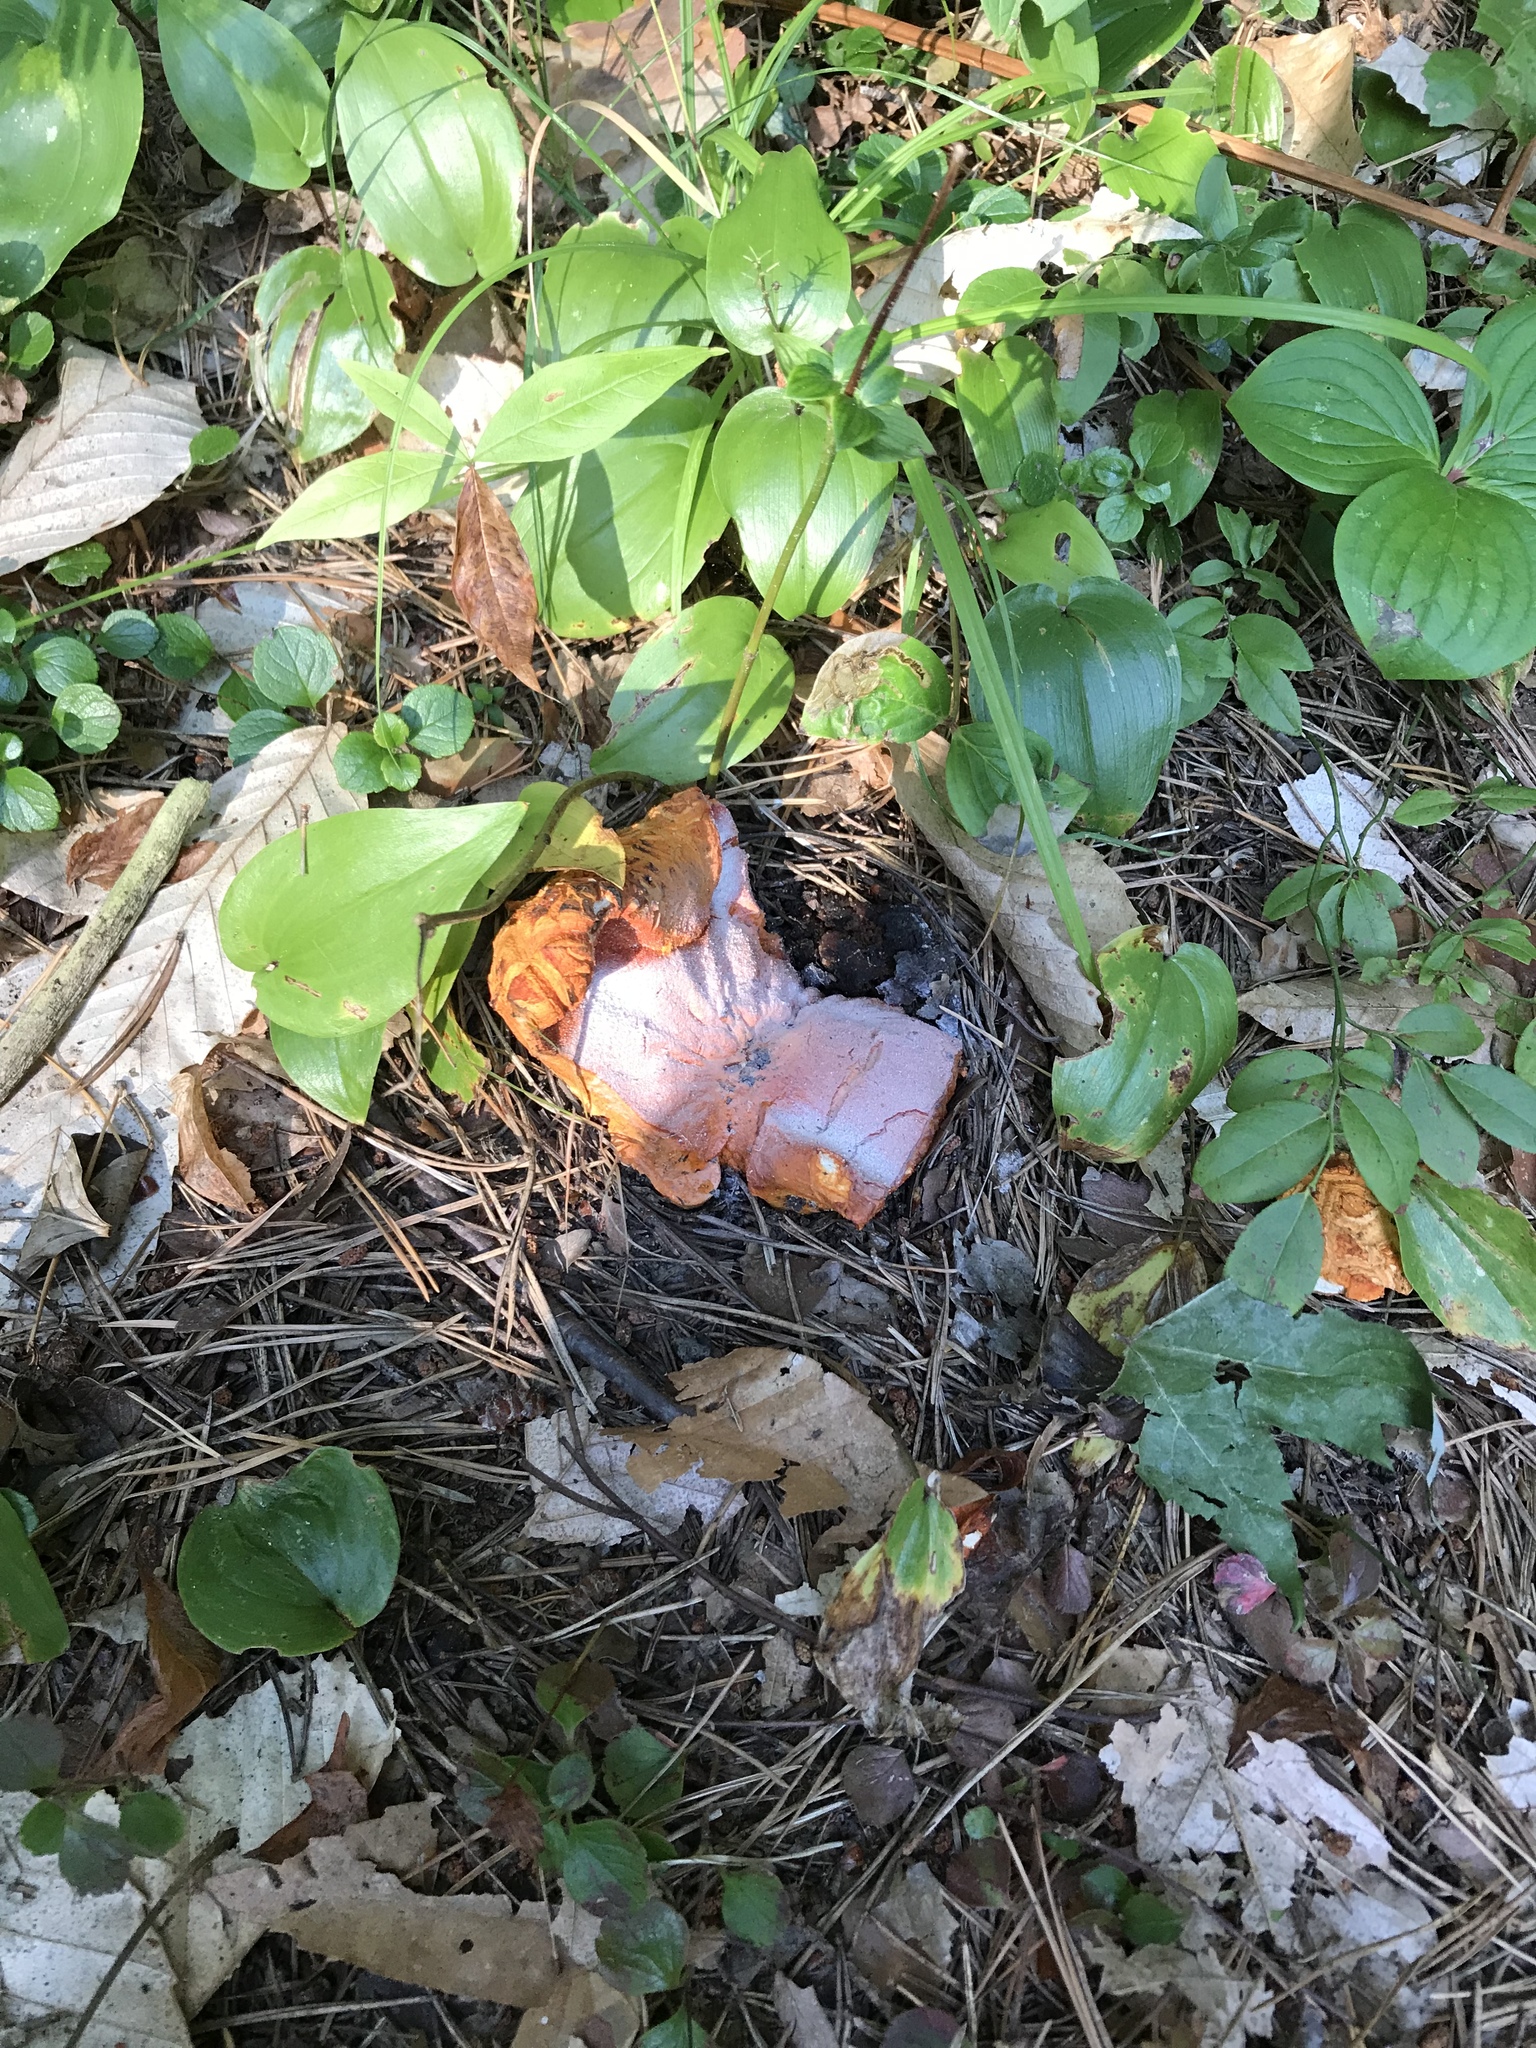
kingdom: Fungi
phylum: Ascomycota
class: Sordariomycetes
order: Hypocreales
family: Hypocreaceae
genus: Hypomyces
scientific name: Hypomyces lactifluorum
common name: Lobster mushroom
